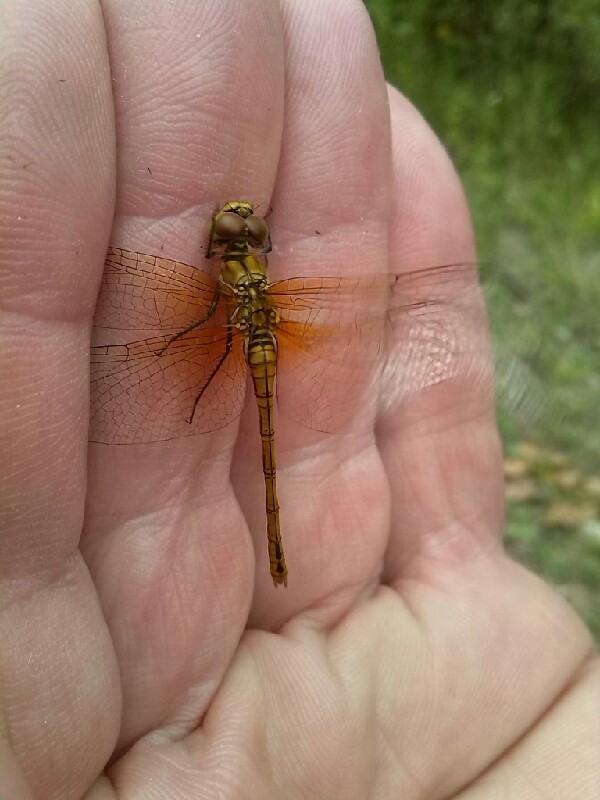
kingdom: Animalia
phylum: Arthropoda
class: Insecta
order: Odonata
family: Libellulidae
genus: Sympetrum
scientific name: Sympetrum sanguineum
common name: Ruddy darter
